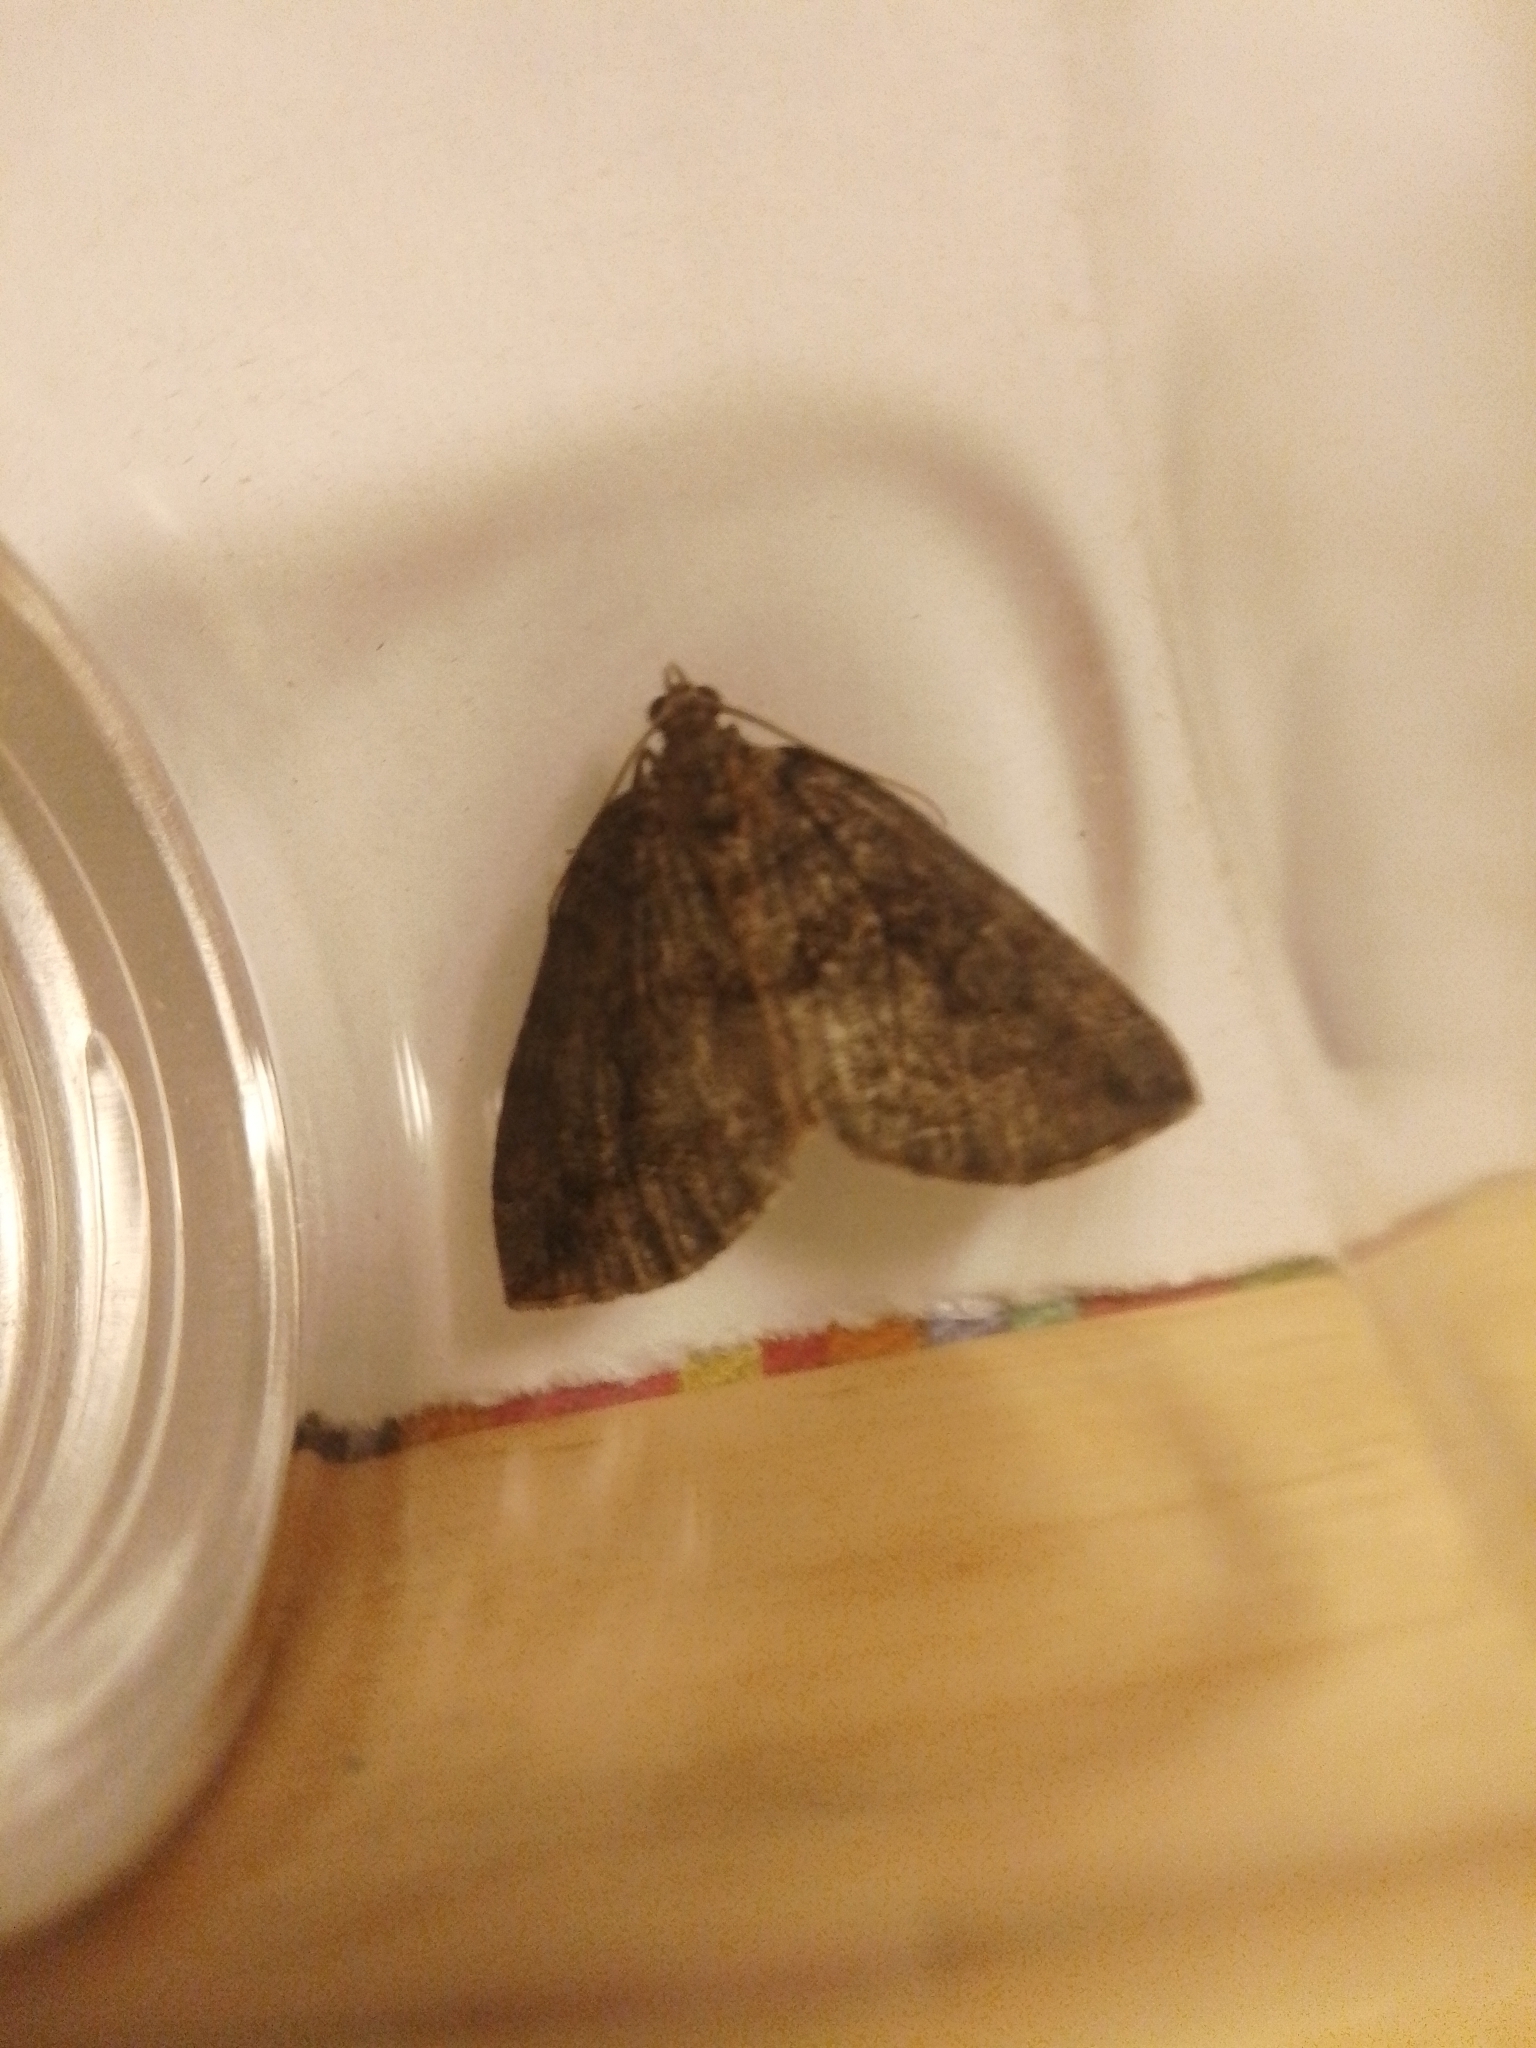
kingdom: Animalia
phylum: Arthropoda
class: Insecta
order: Lepidoptera
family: Geometridae
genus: Hydriomena
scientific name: Hydriomena furcata
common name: July highflyer
